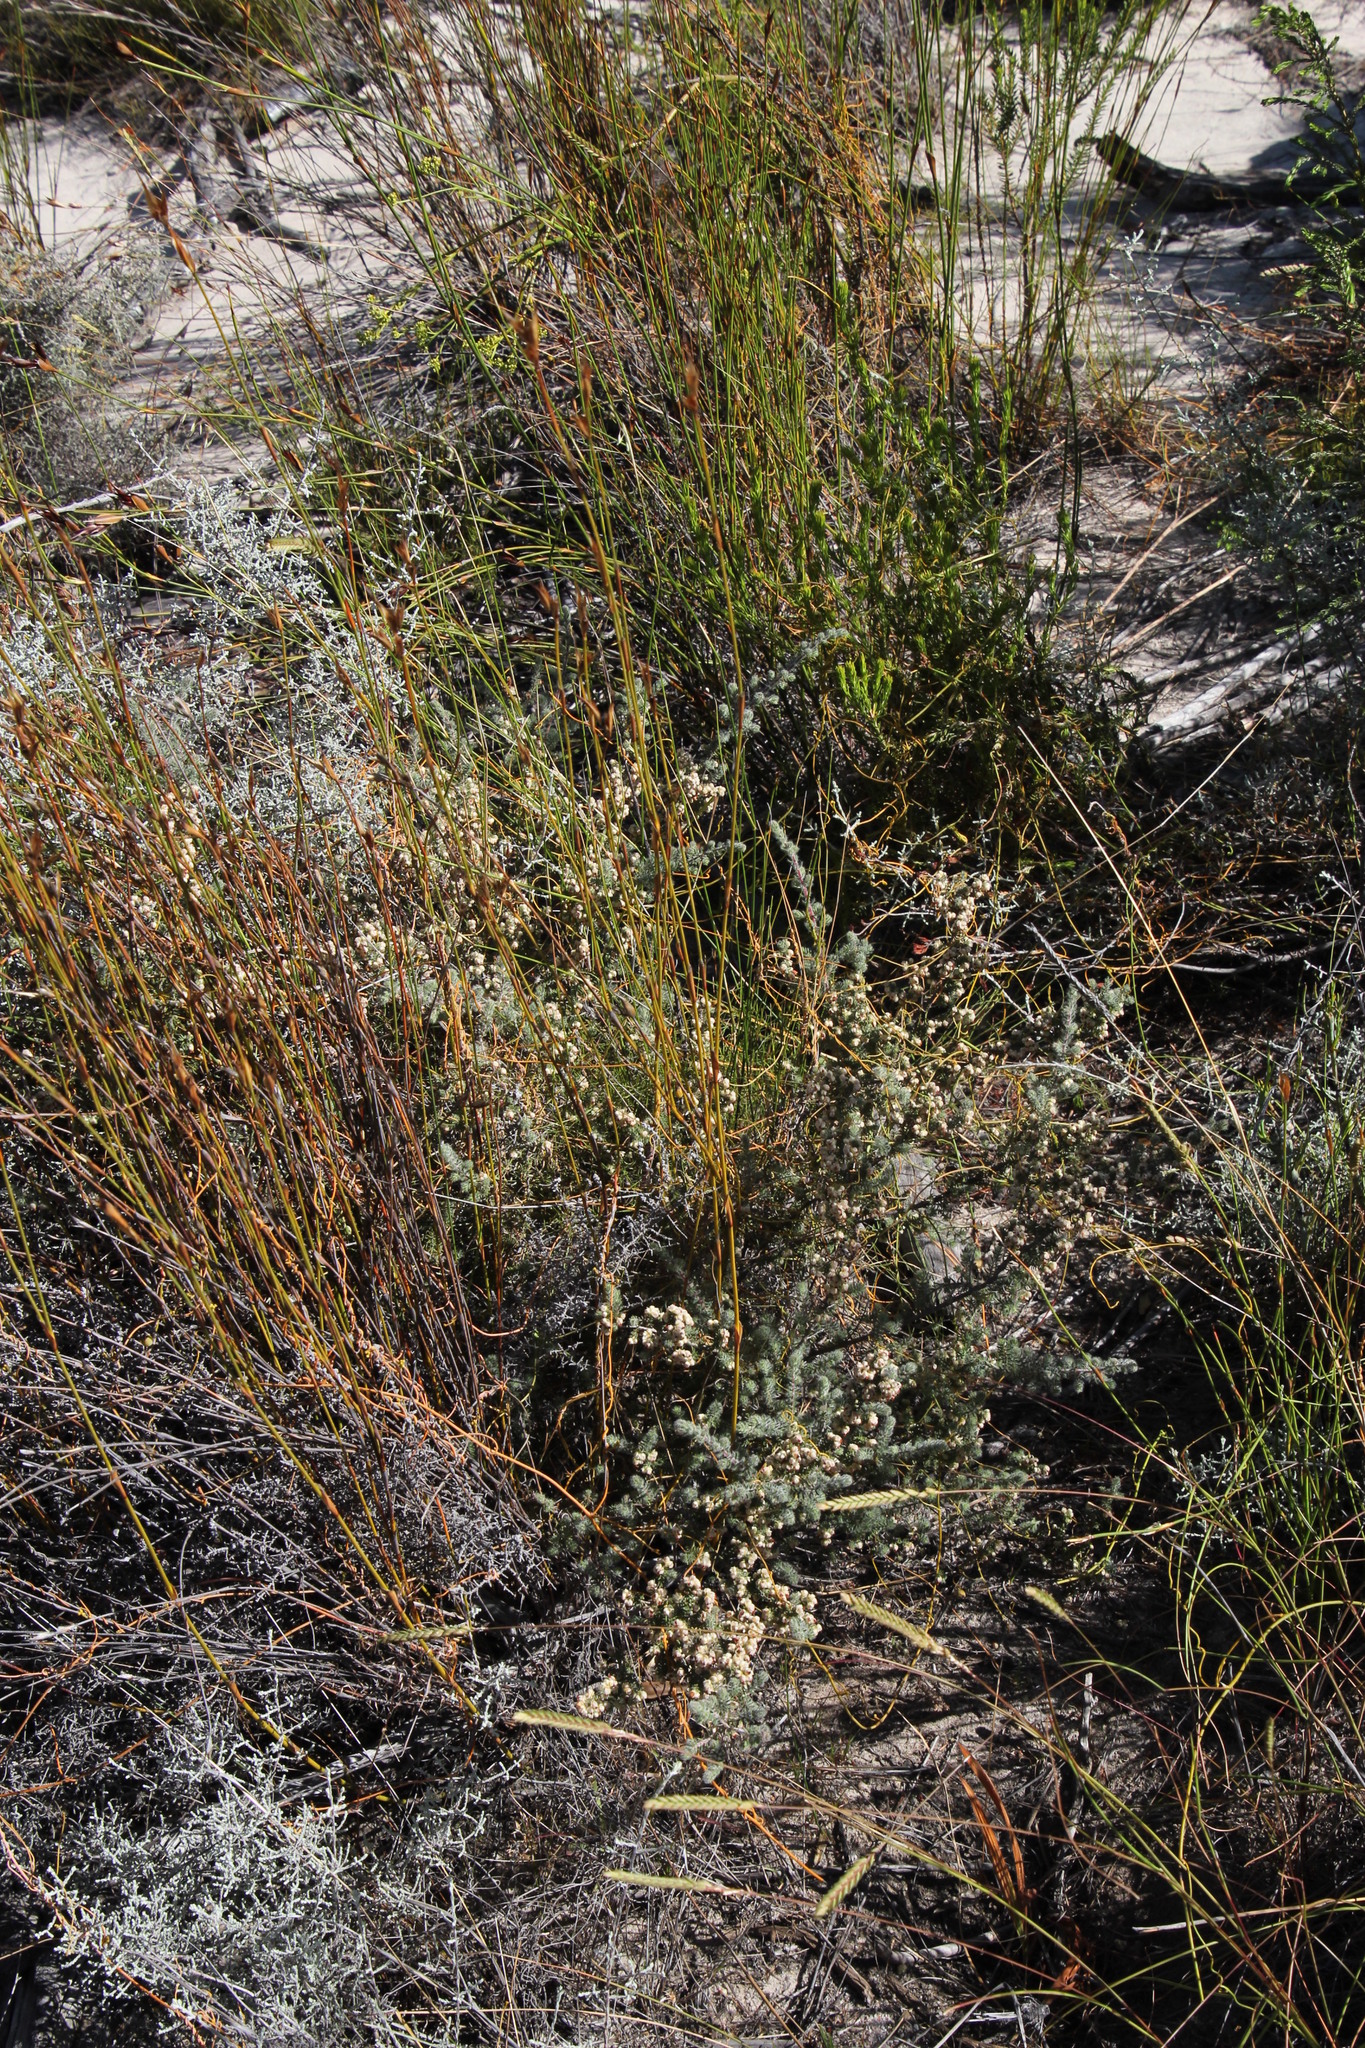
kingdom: Plantae
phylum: Tracheophyta
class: Magnoliopsida
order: Ericales
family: Ericaceae
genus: Erica
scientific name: Erica totta
